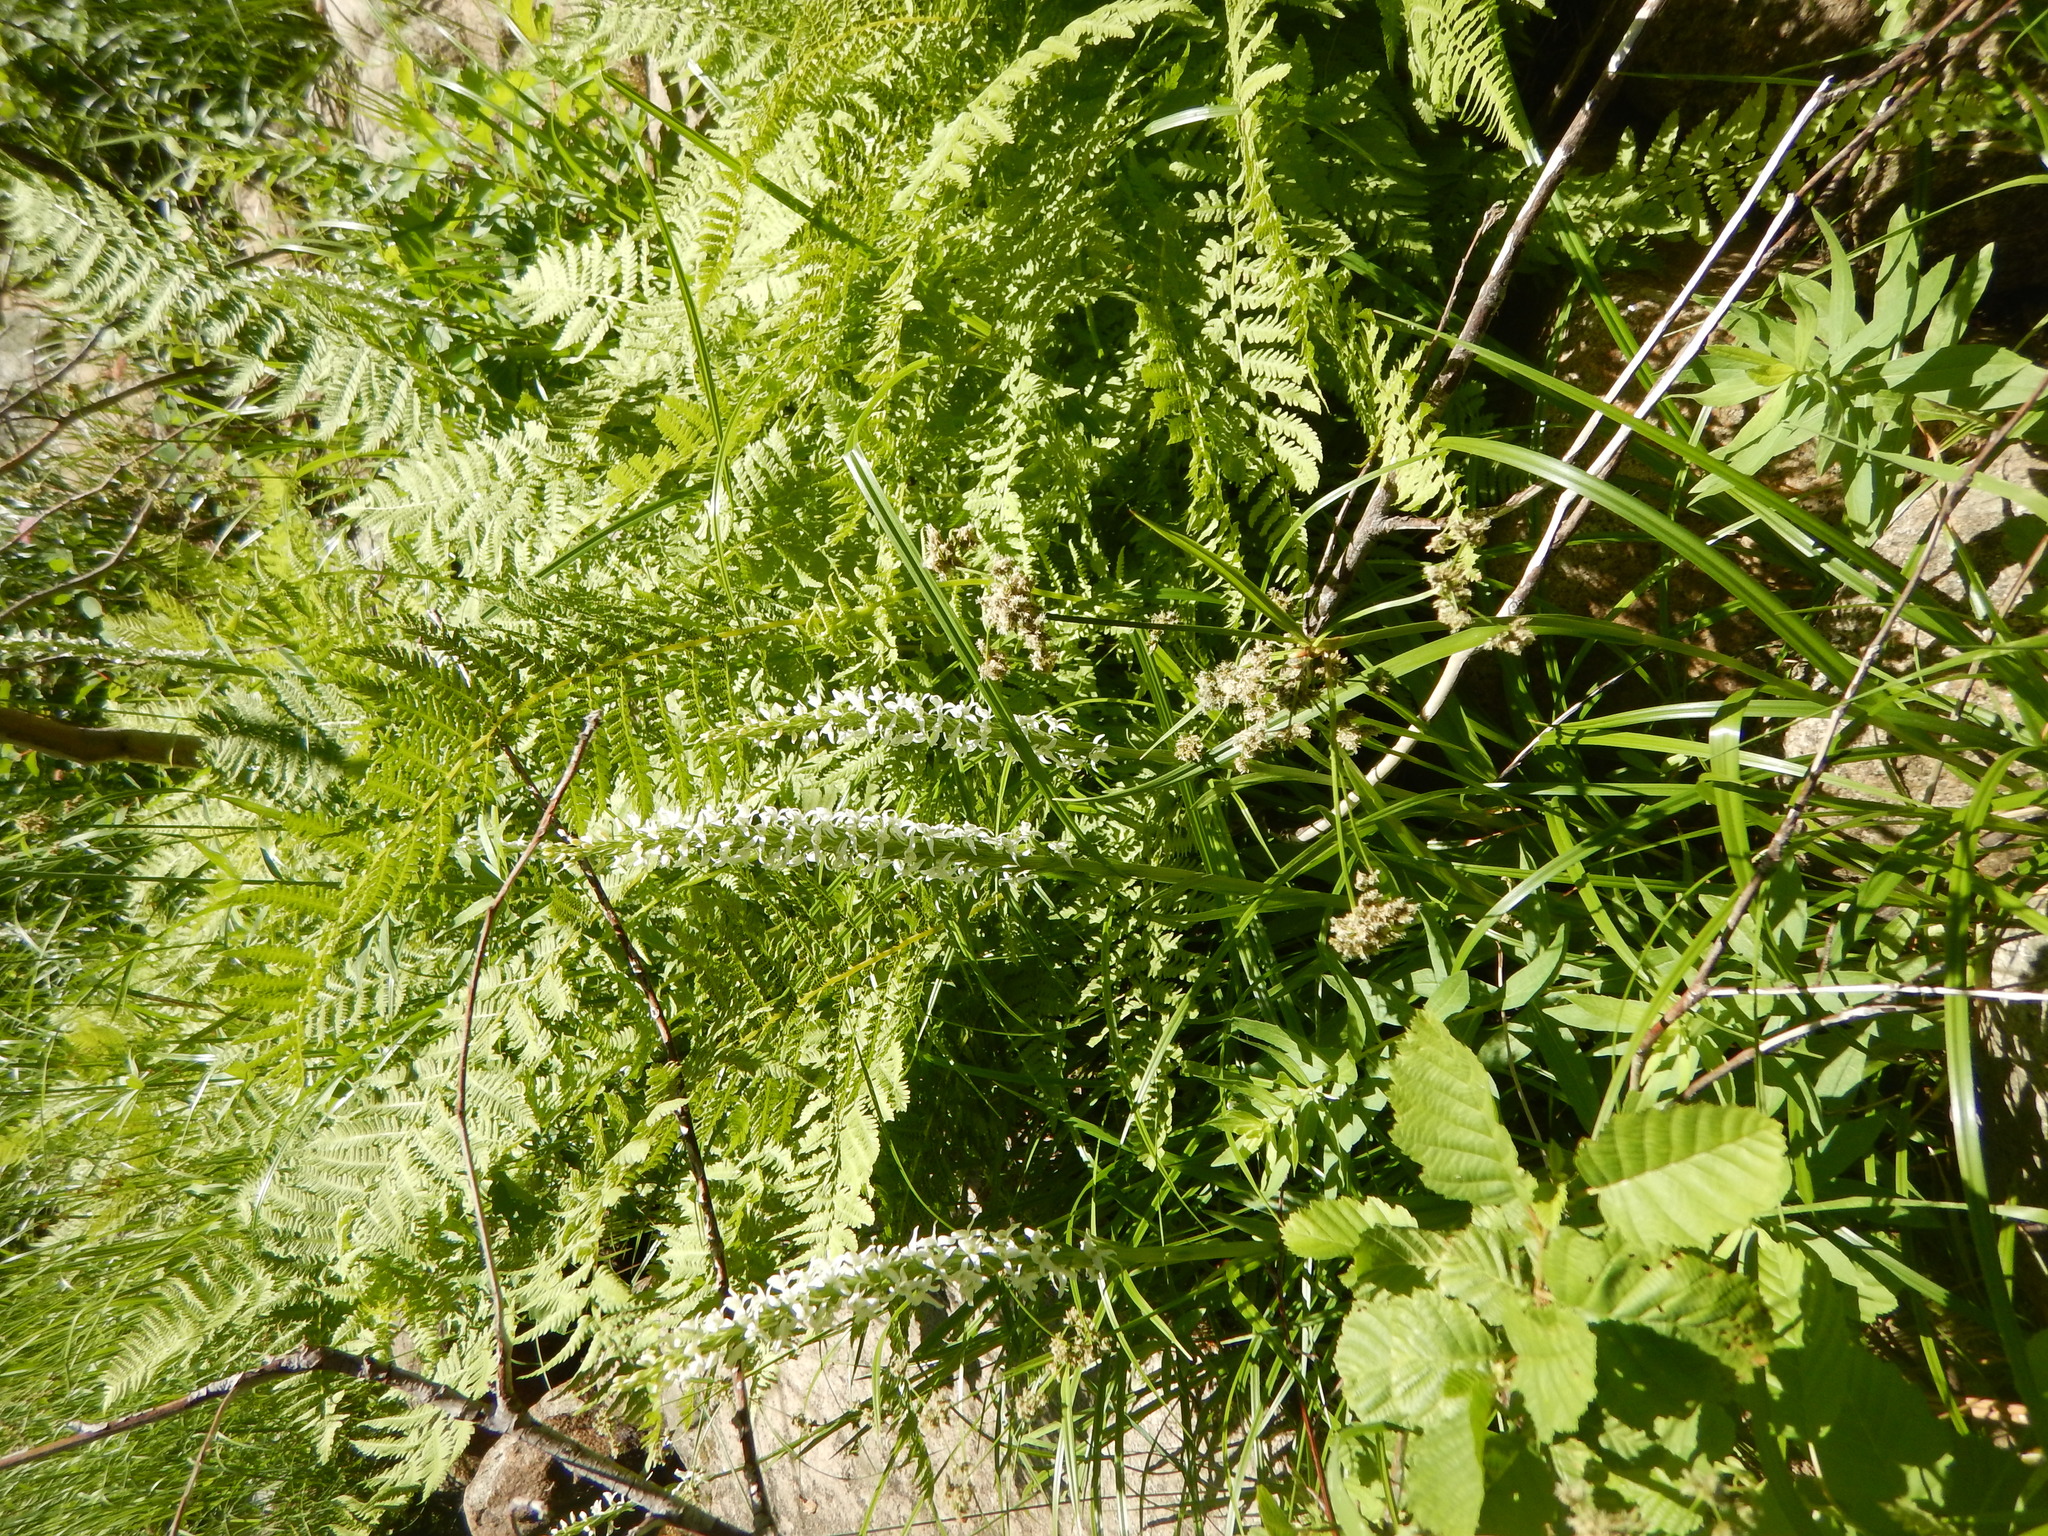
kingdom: Plantae
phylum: Tracheophyta
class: Liliopsida
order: Asparagales
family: Orchidaceae
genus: Platanthera
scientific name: Platanthera dilatata
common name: Bog candles
